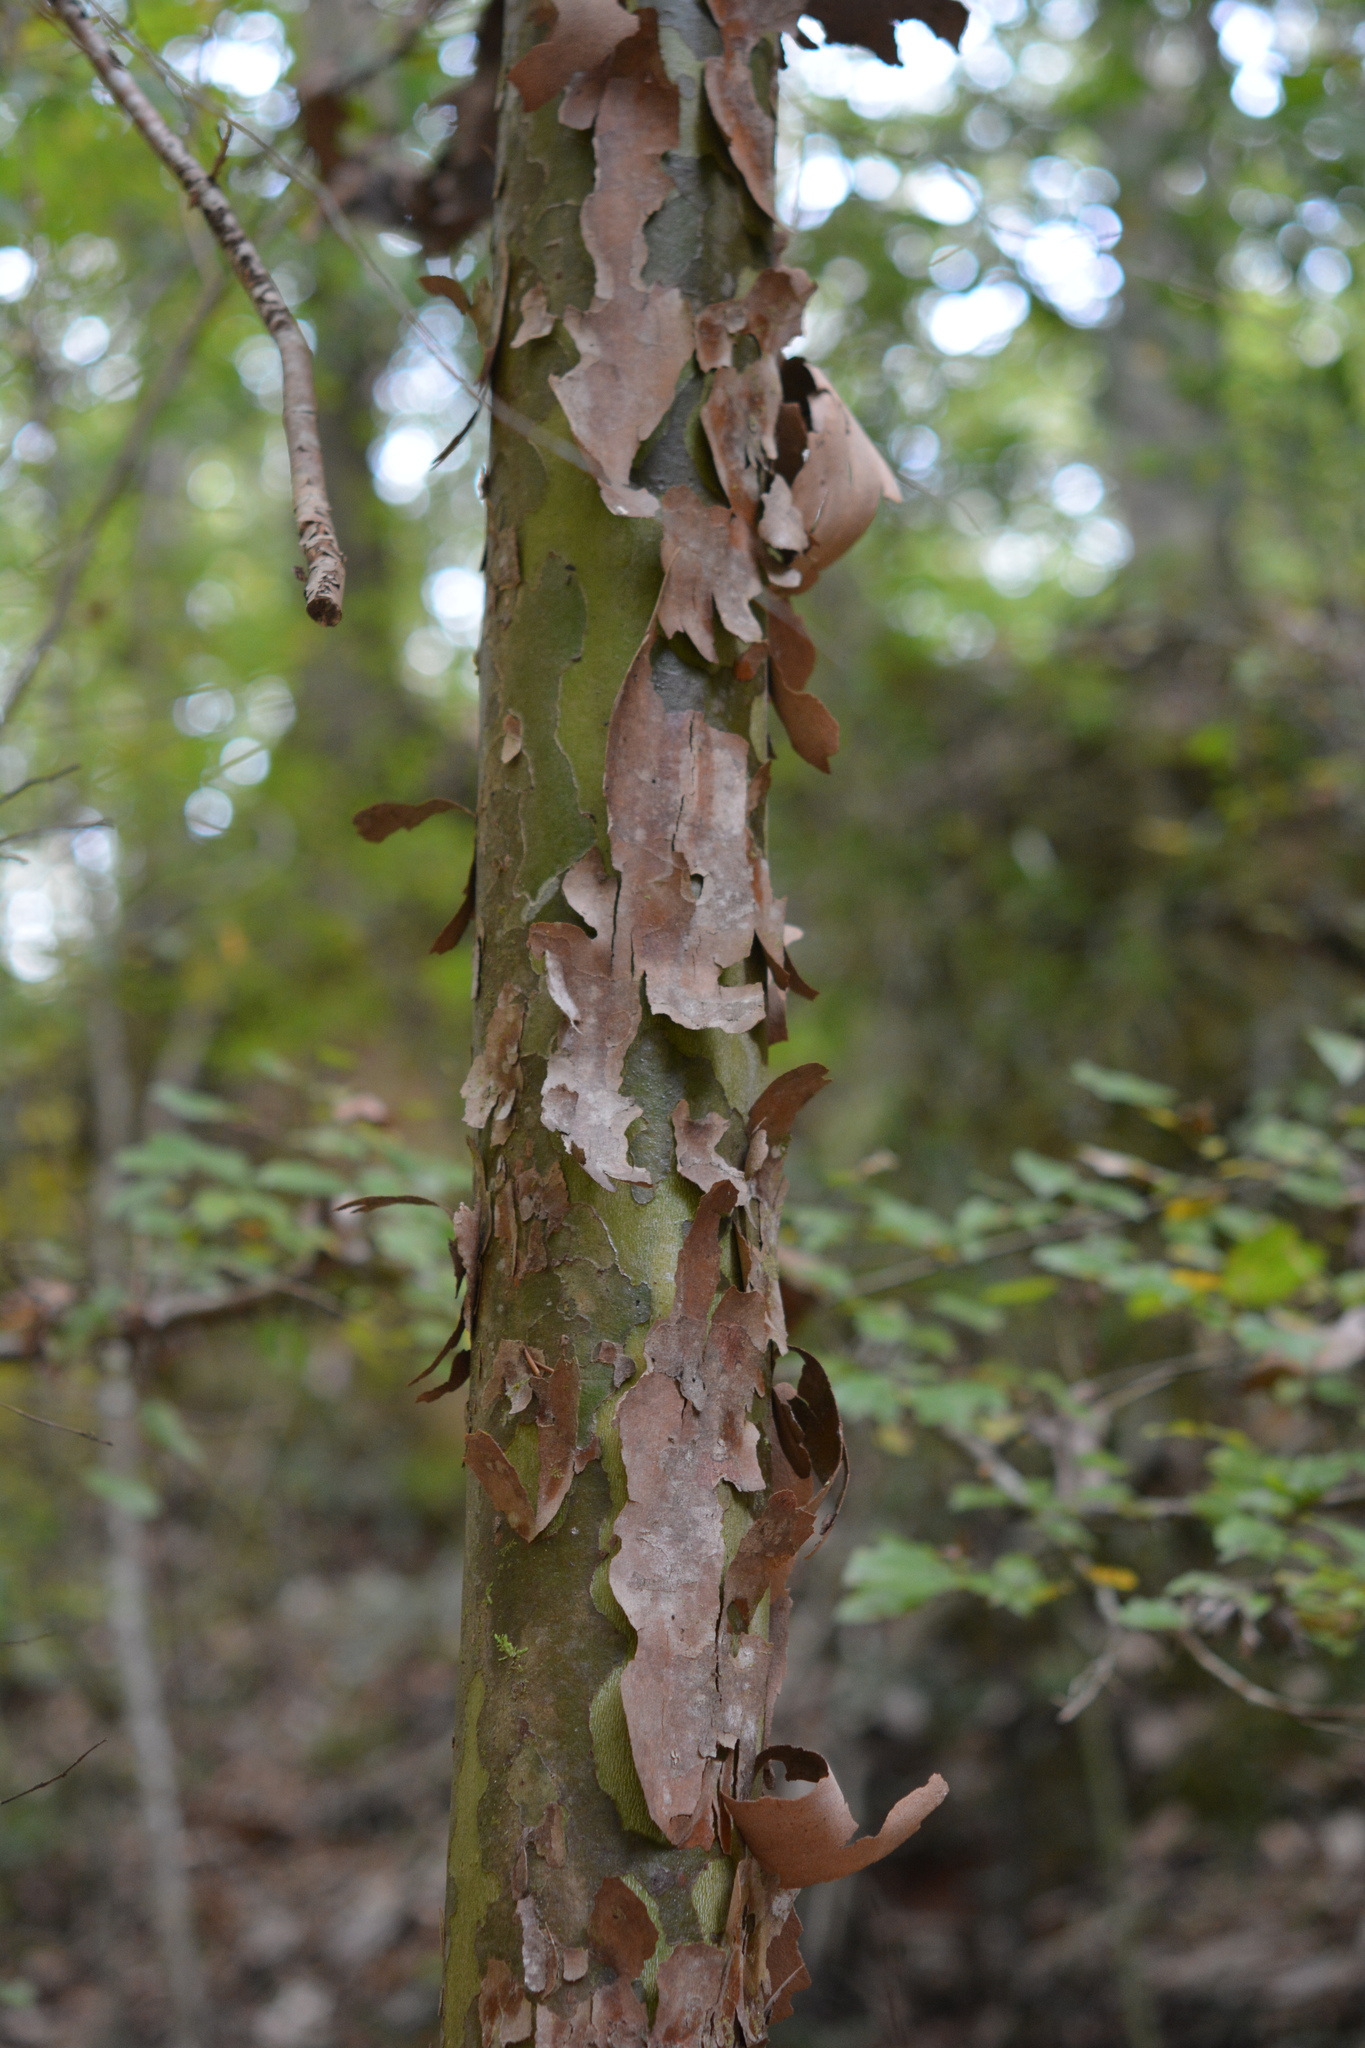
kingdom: Plantae
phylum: Tracheophyta
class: Magnoliopsida
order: Proteales
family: Platanaceae
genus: Platanus
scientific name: Platanus occidentalis
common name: American sycamore
